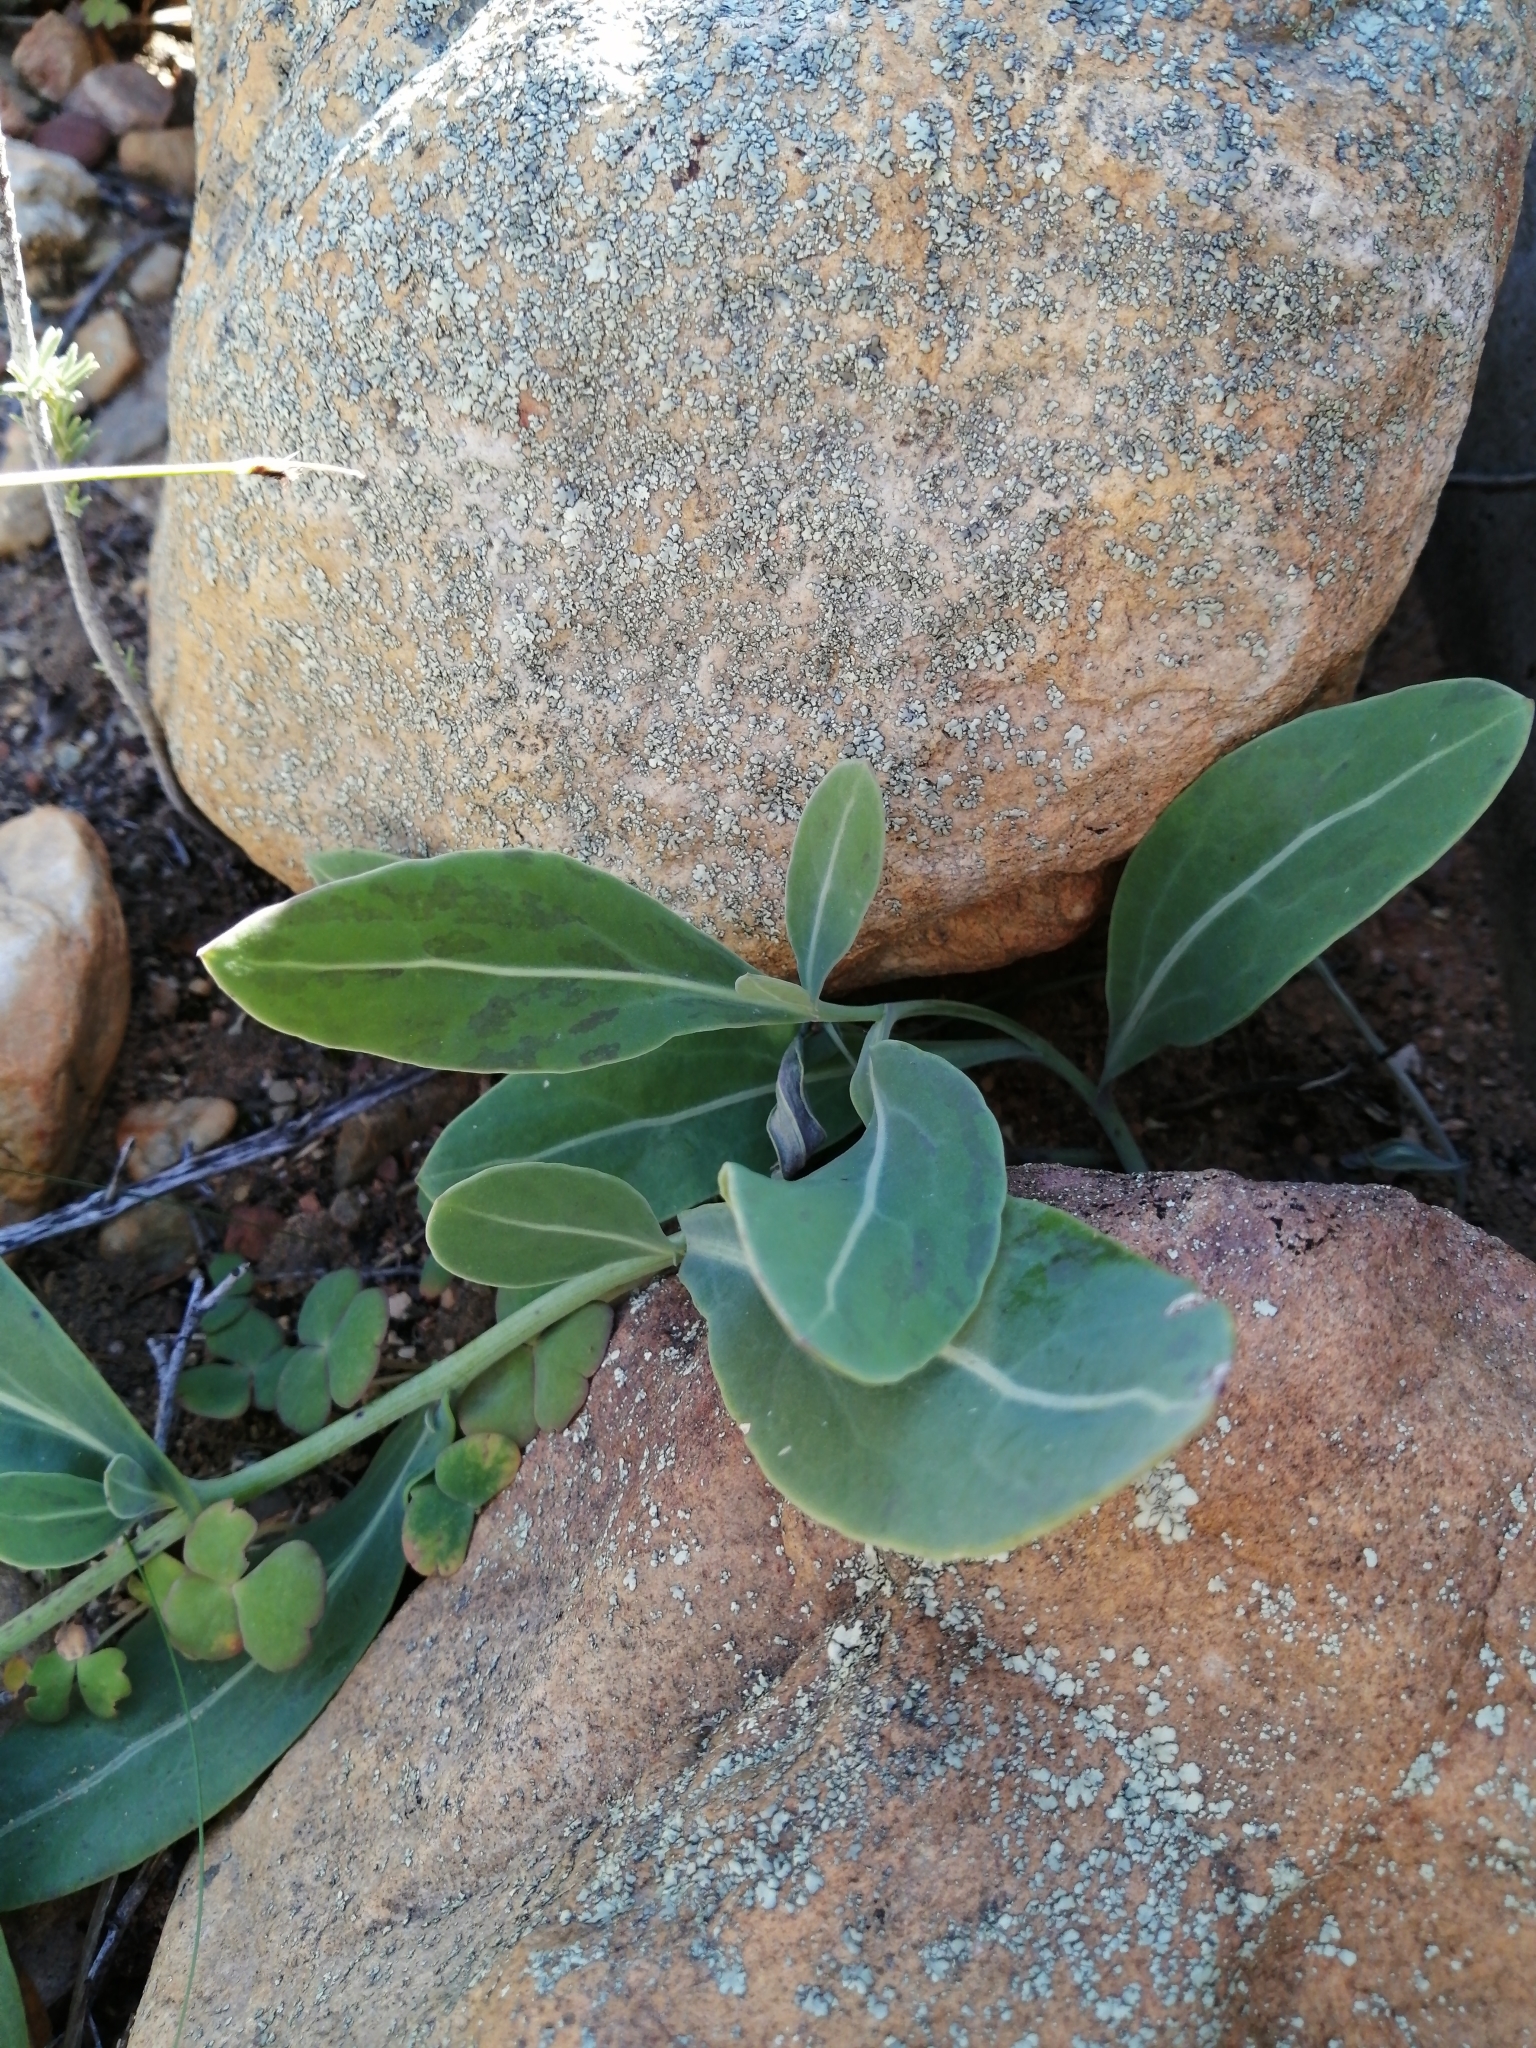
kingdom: Plantae
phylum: Tracheophyta
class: Magnoliopsida
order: Asterales
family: Asteraceae
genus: Othonna
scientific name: Othonna gymnodiscus
